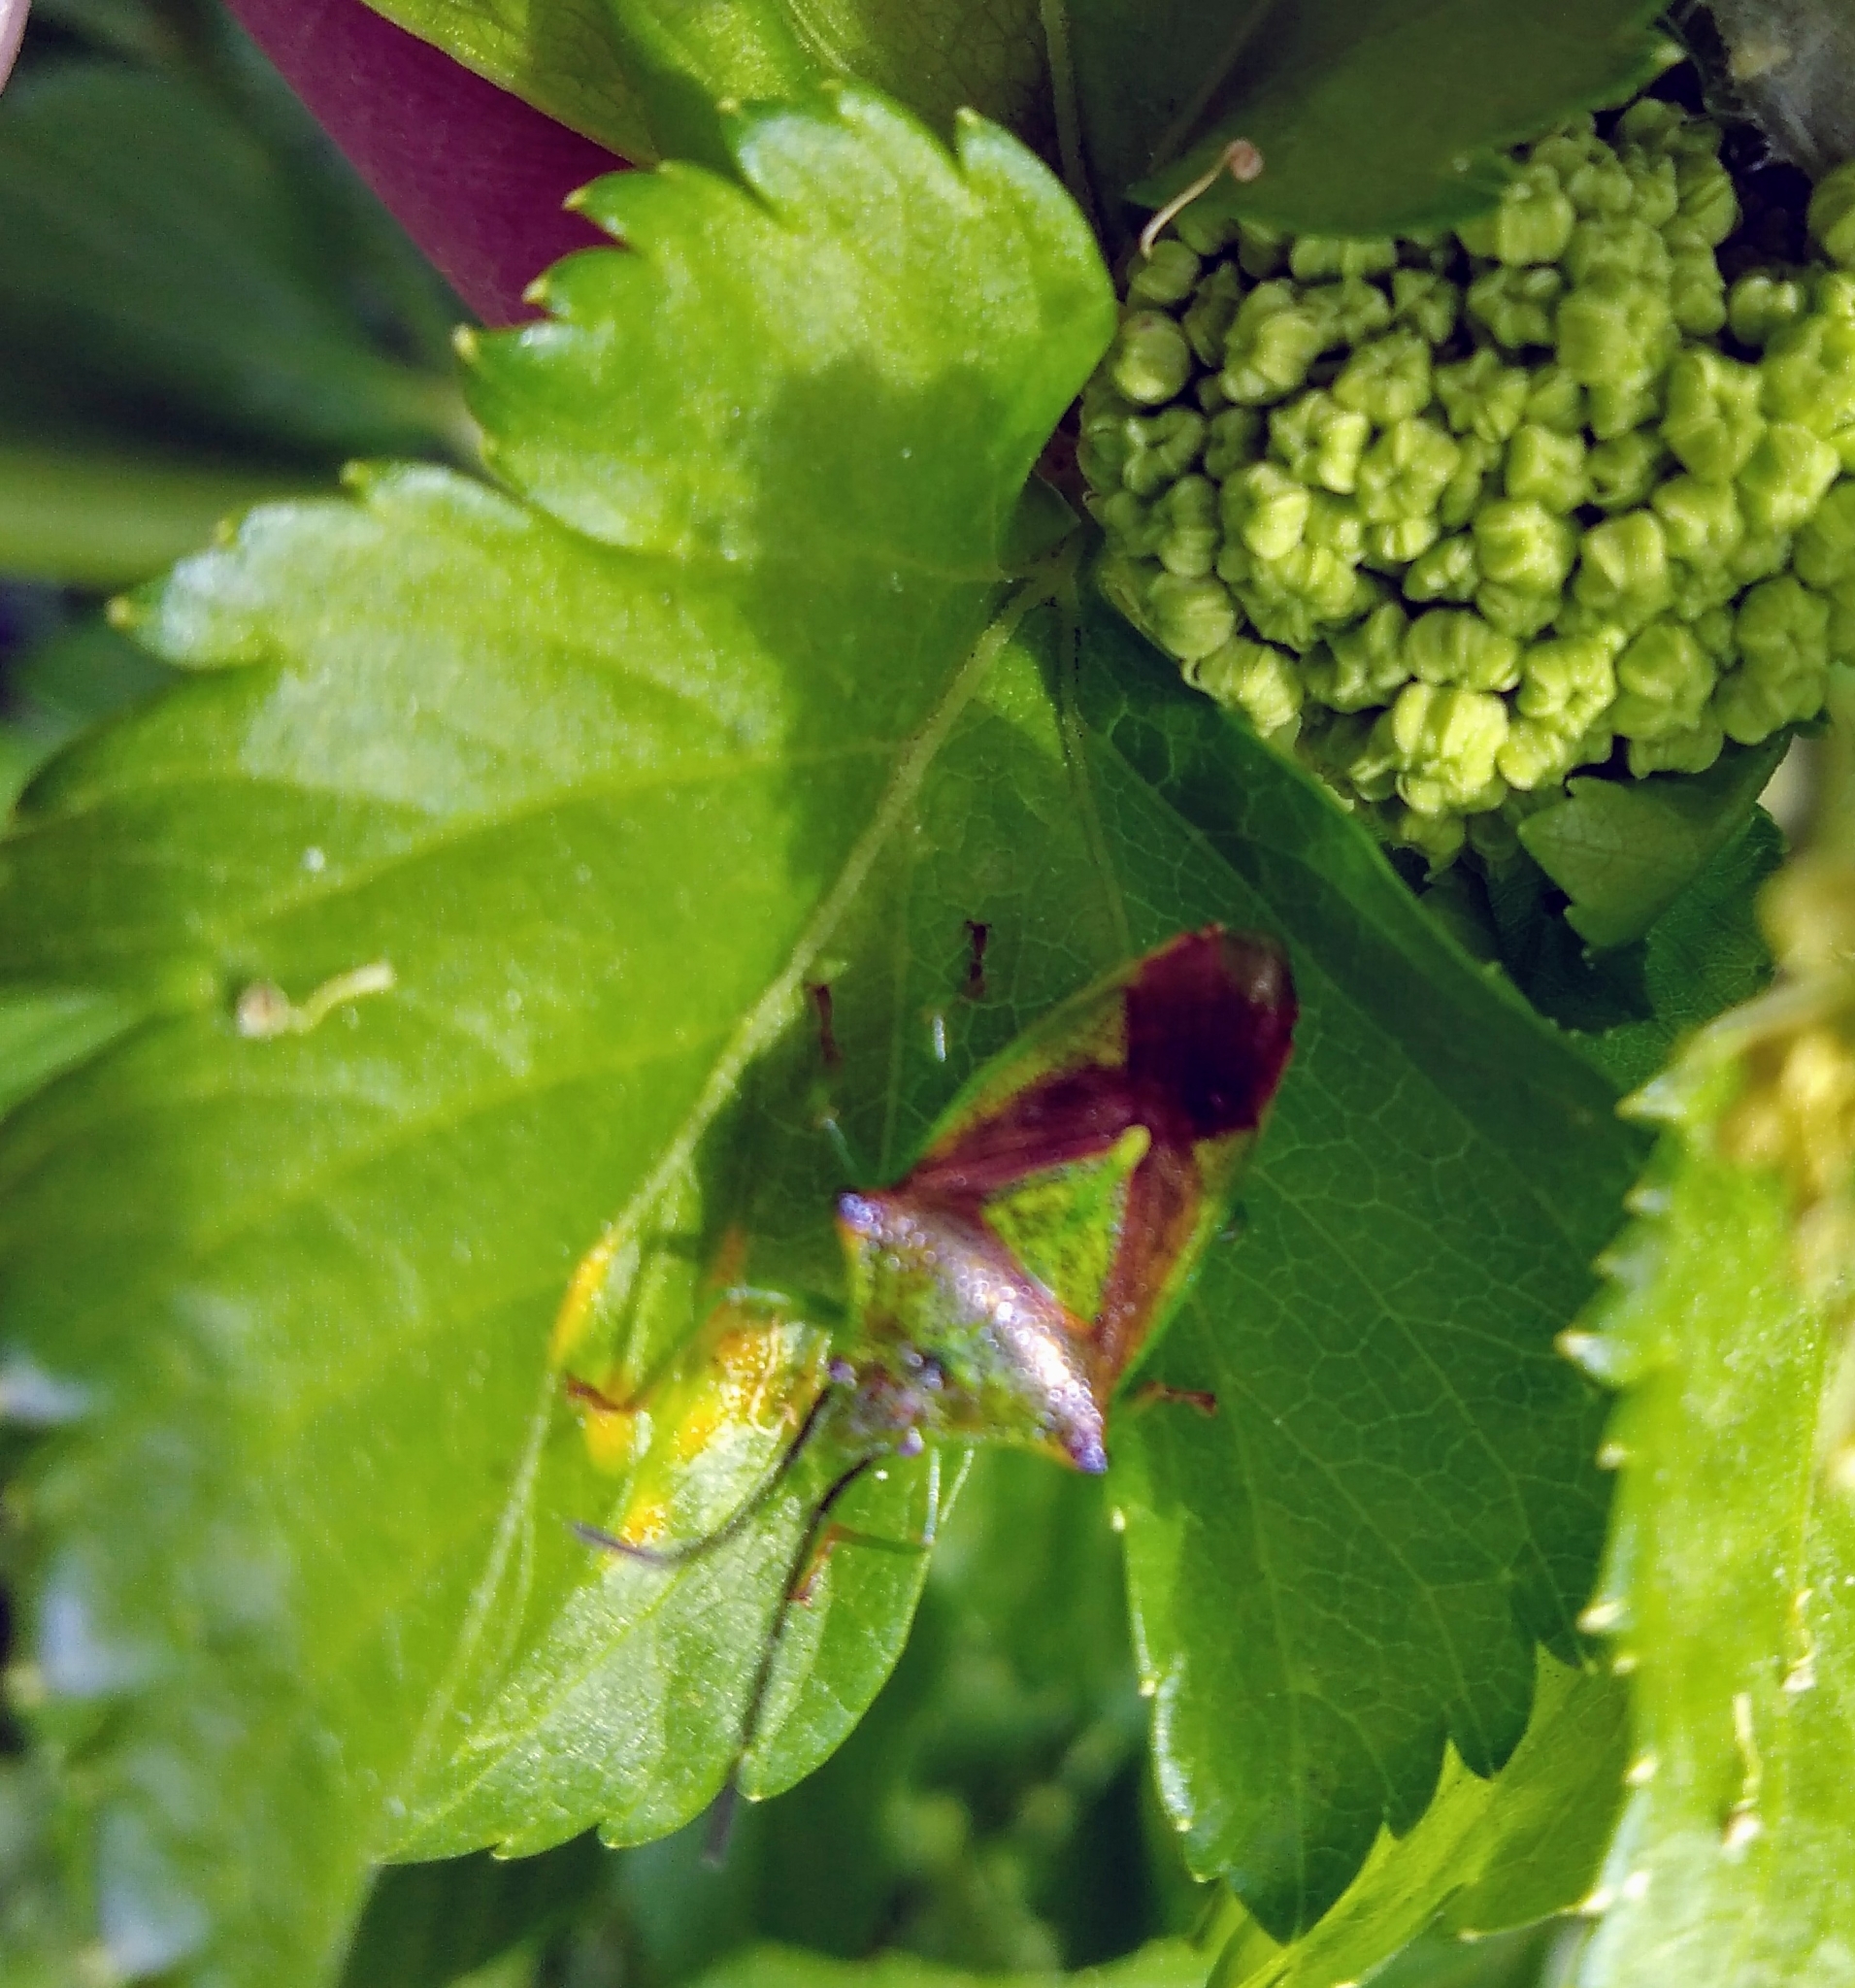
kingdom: Animalia
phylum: Arthropoda
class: Insecta
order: Hemiptera
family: Acanthosomatidae
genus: Acanthosoma
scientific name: Acanthosoma haemorrhoidale
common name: Hawthorn shieldbug
